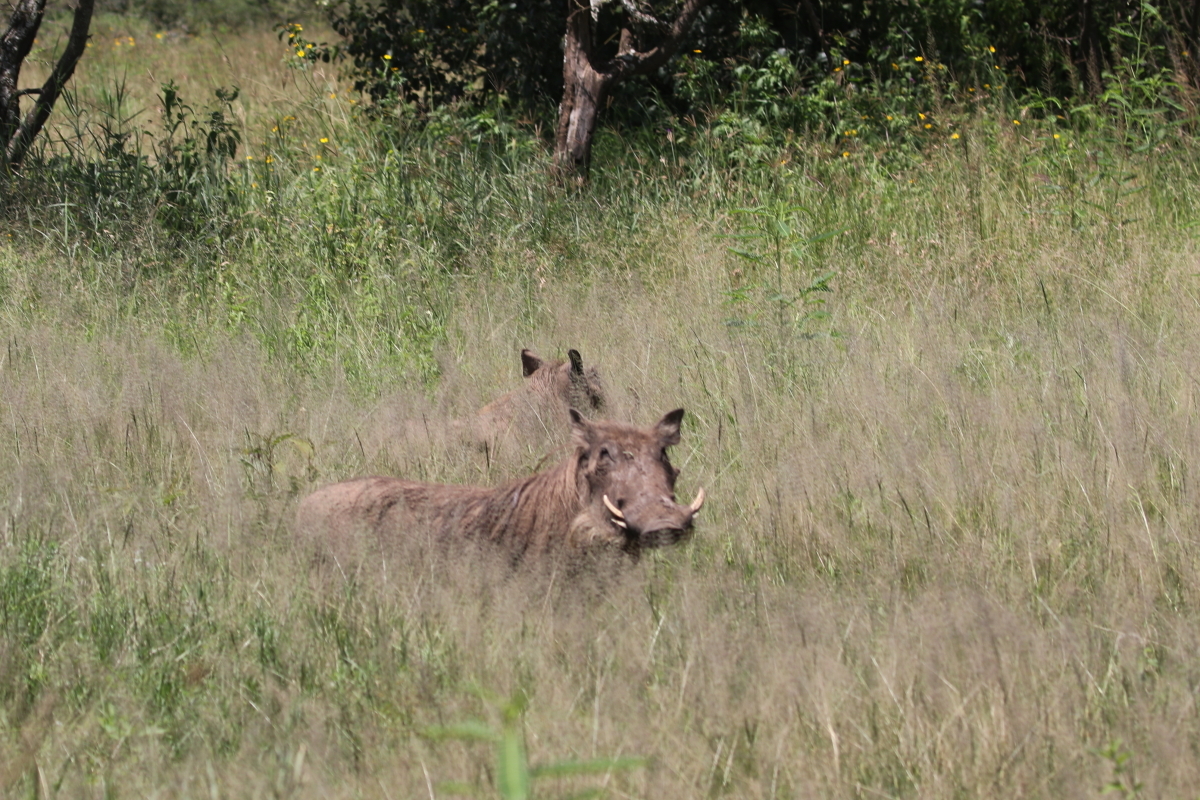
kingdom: Animalia
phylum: Chordata
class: Mammalia
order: Artiodactyla
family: Suidae
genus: Phacochoerus
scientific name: Phacochoerus africanus
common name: Common warthog
